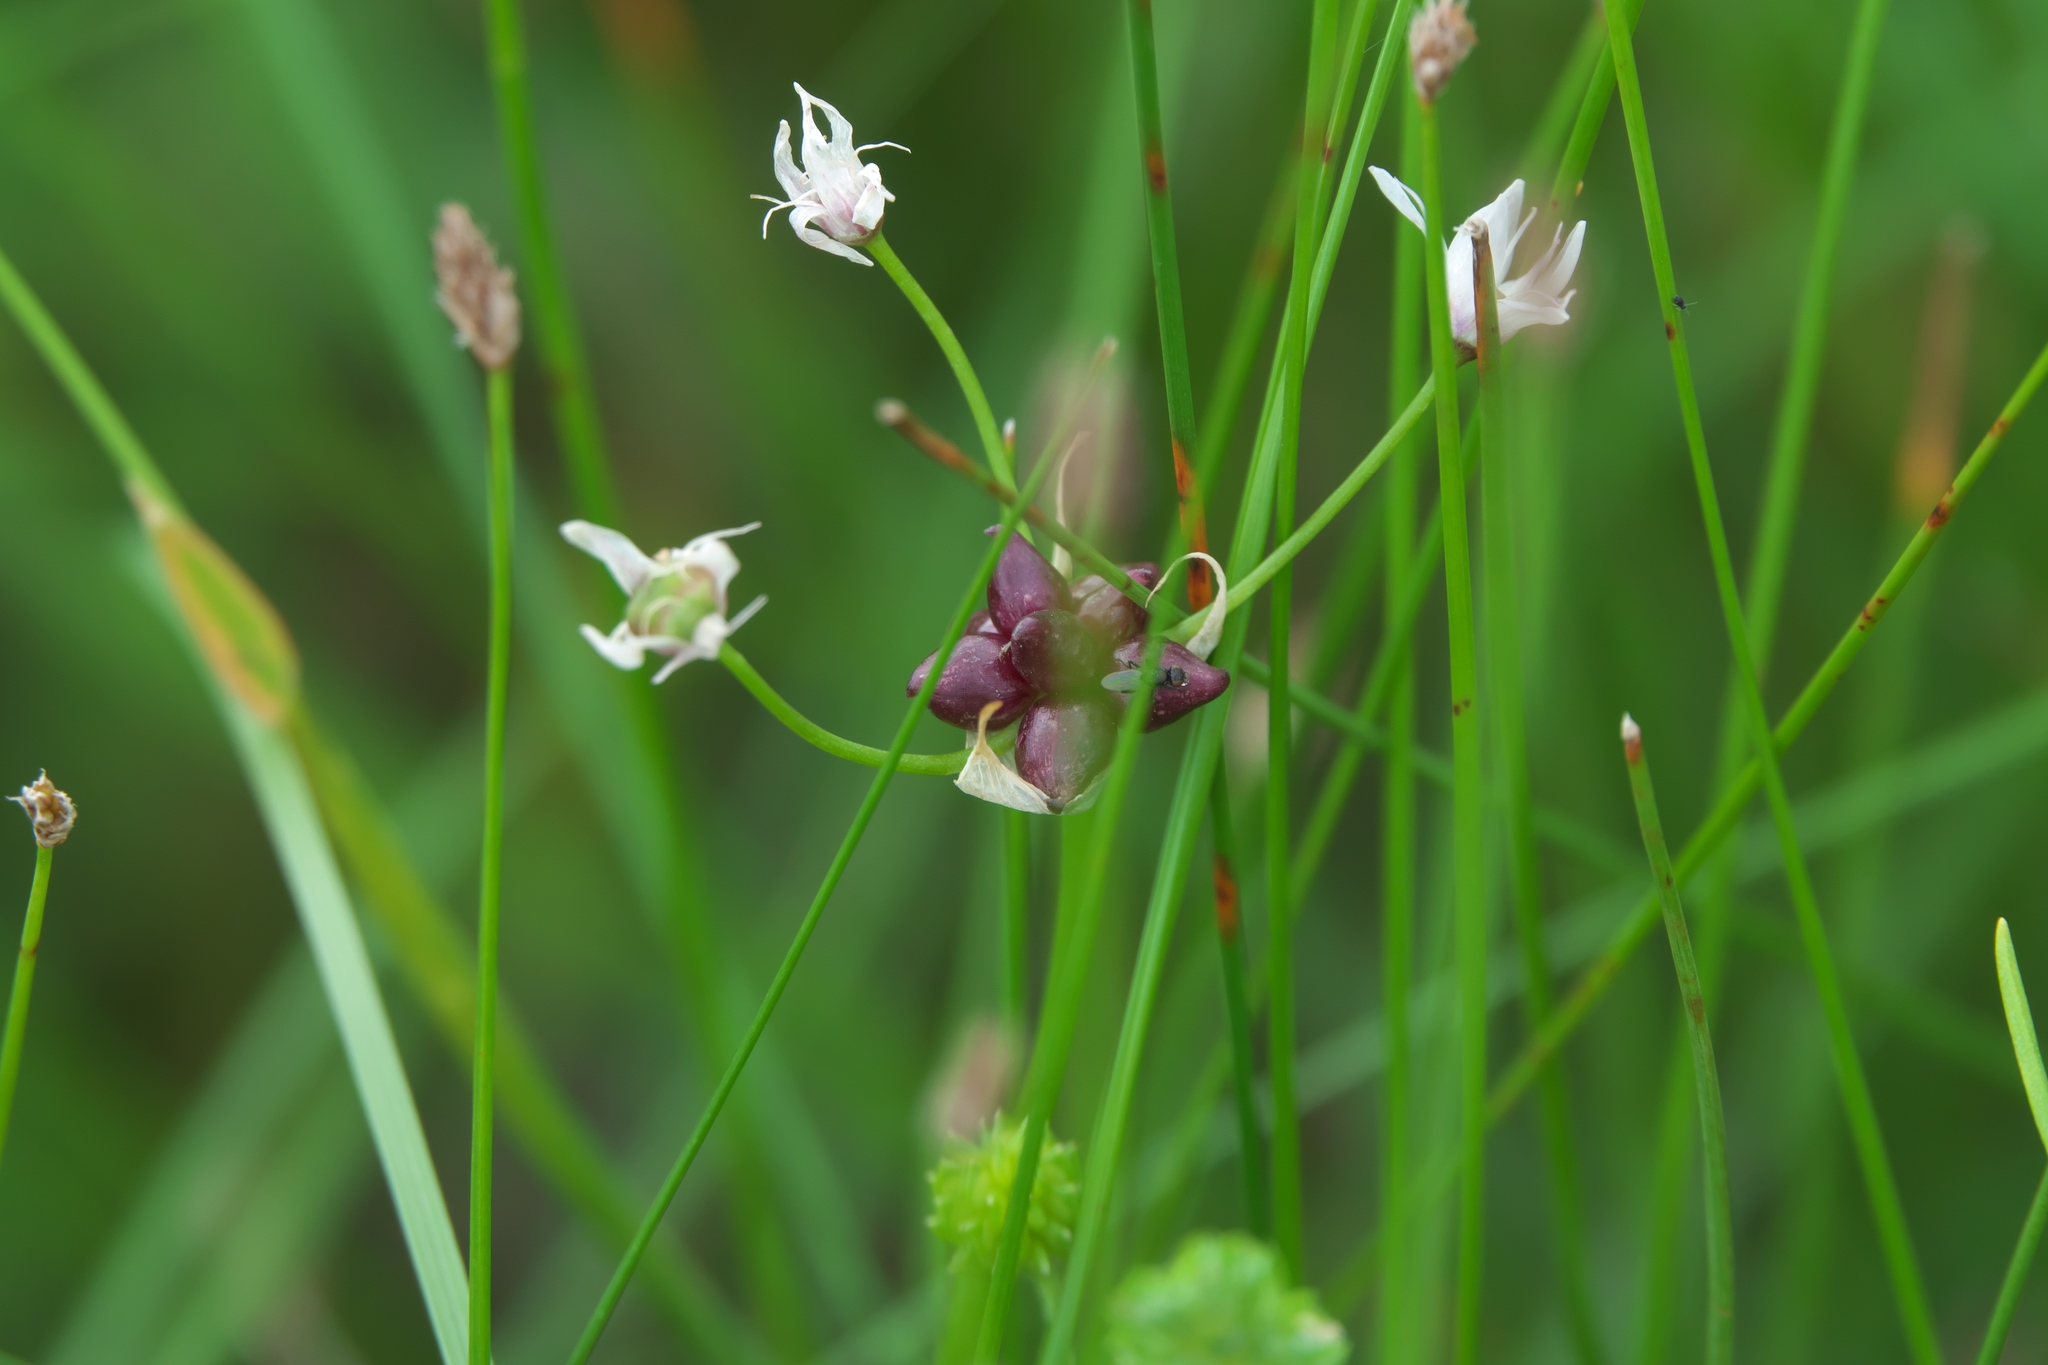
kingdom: Plantae
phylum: Tracheophyta
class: Liliopsida
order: Asparagales
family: Amaryllidaceae
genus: Allium
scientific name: Allium canadense
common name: Meadow garlic
